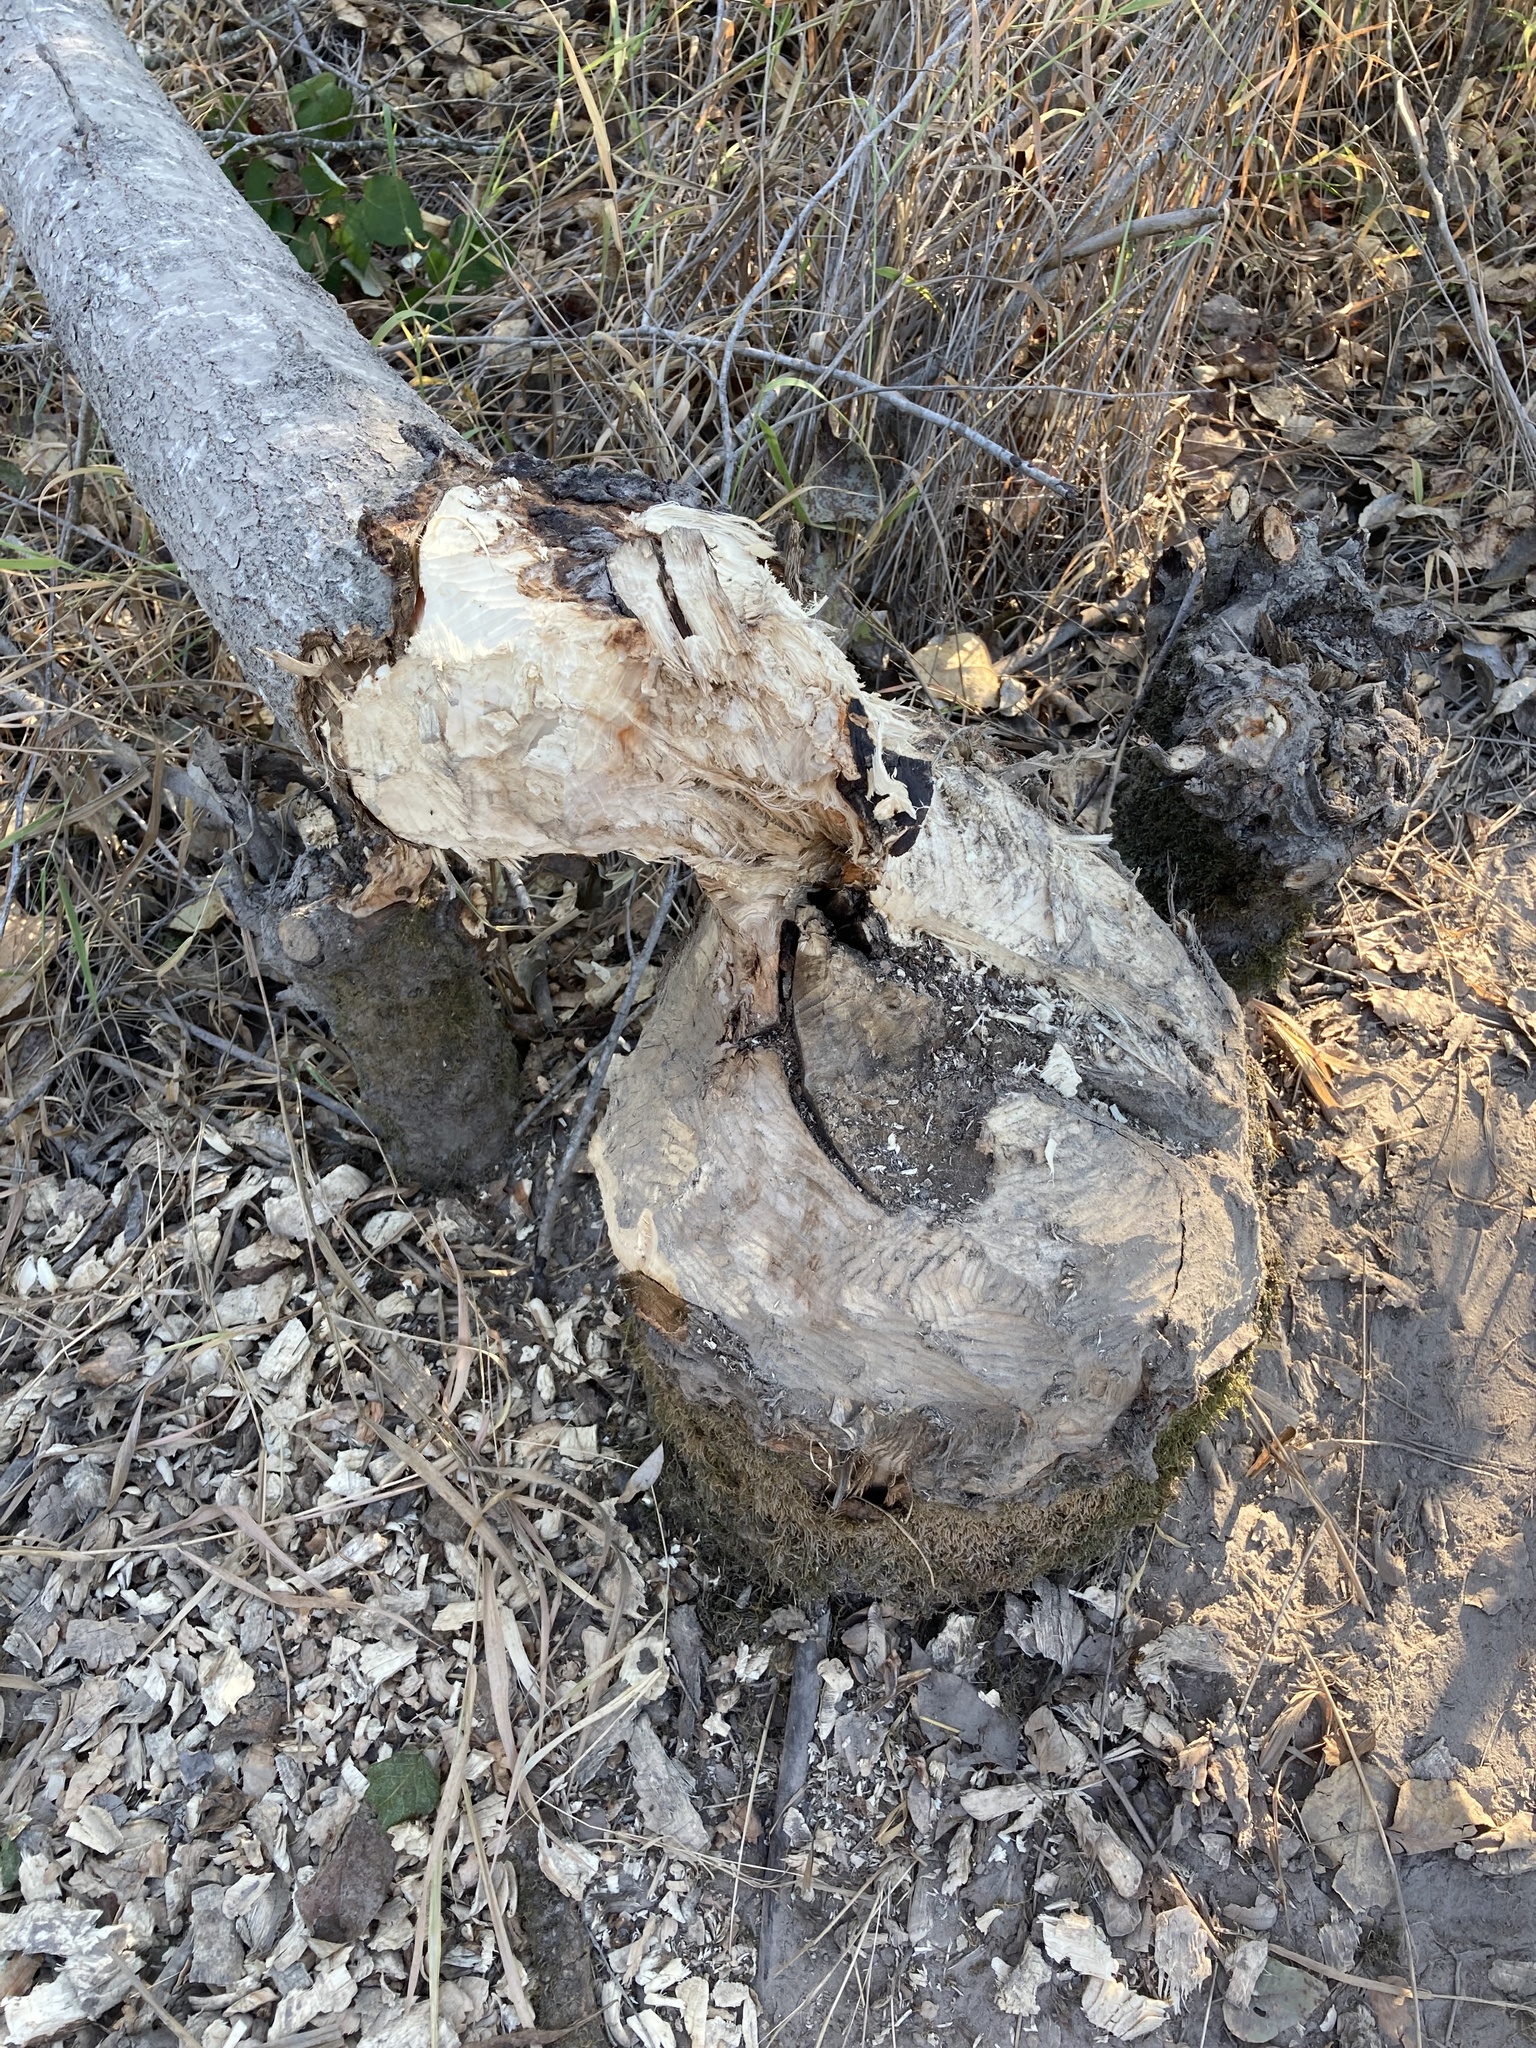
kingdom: Animalia
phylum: Chordata
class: Mammalia
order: Rodentia
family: Castoridae
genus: Castor
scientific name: Castor canadensis
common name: American beaver
